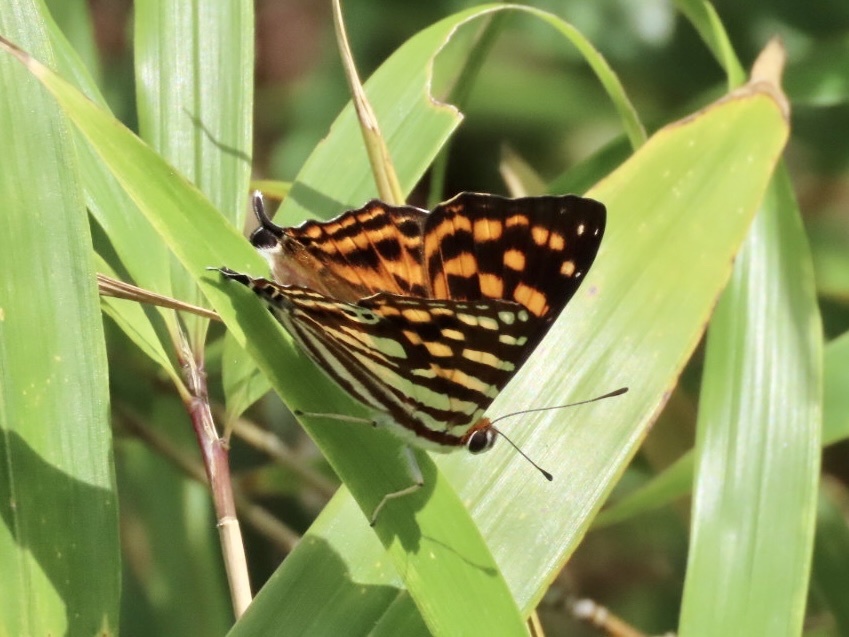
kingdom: Animalia
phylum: Arthropoda
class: Insecta
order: Lepidoptera
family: Lycaenidae
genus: Dodona
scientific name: Dodona egeon
